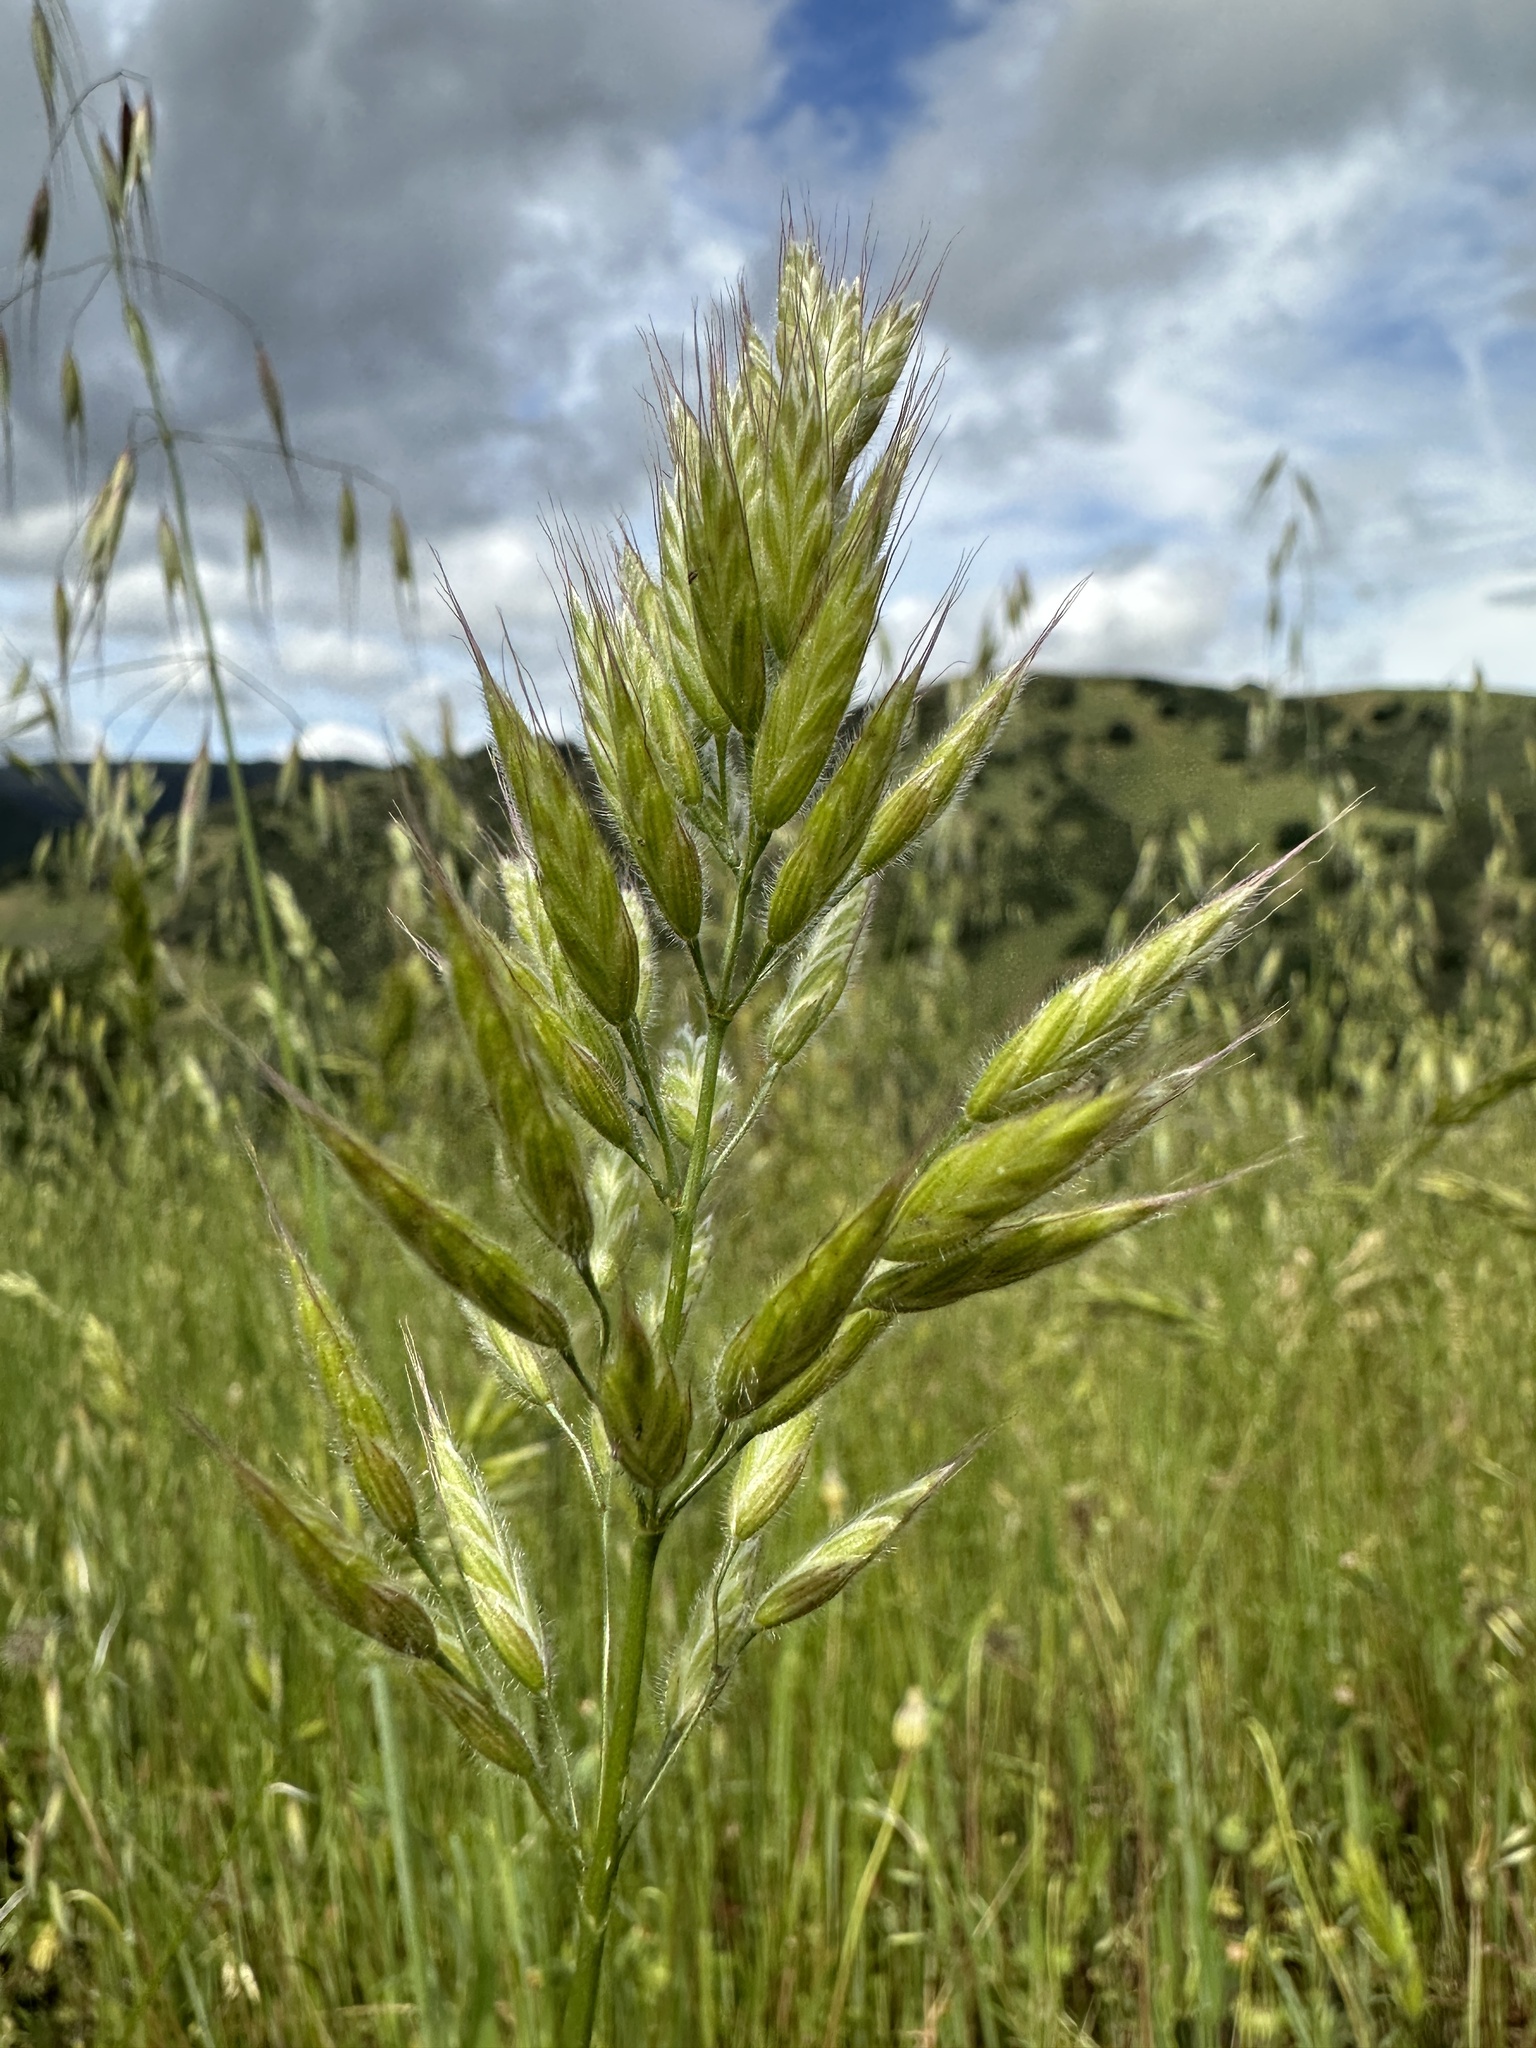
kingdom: Plantae
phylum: Tracheophyta
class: Liliopsida
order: Poales
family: Poaceae
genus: Bromus
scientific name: Bromus hordeaceus
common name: Soft brome
